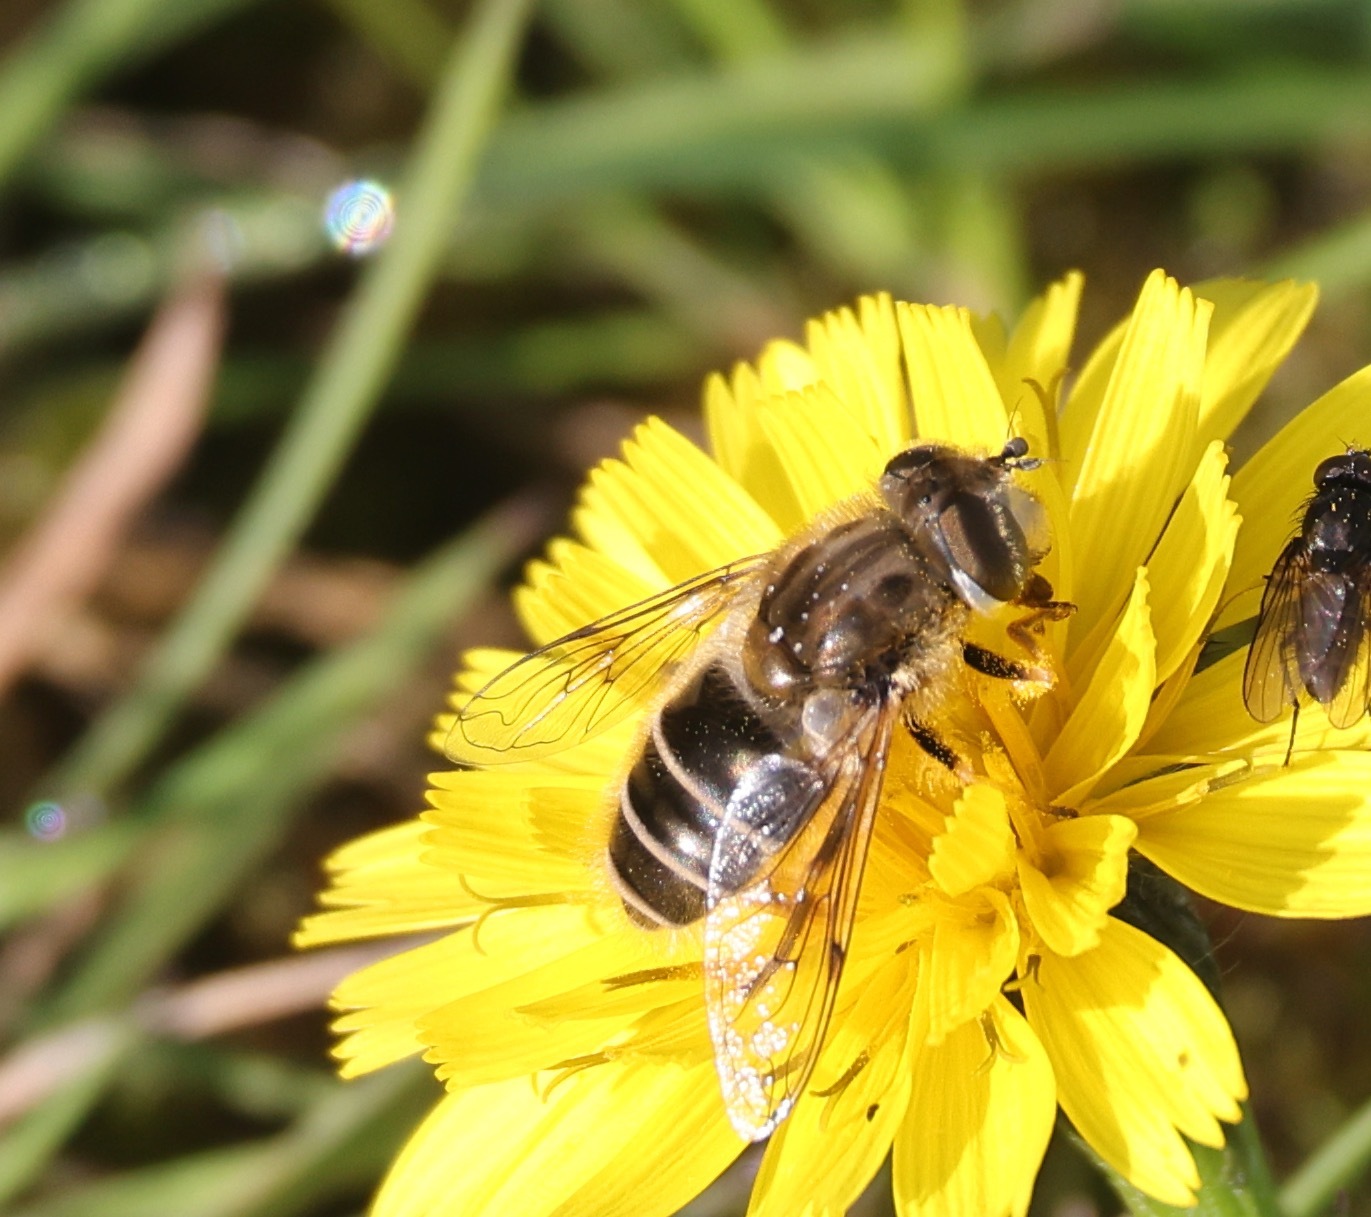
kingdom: Animalia
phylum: Arthropoda
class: Insecta
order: Diptera
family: Syrphidae
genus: Eristalis
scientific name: Eristalis abusivus
